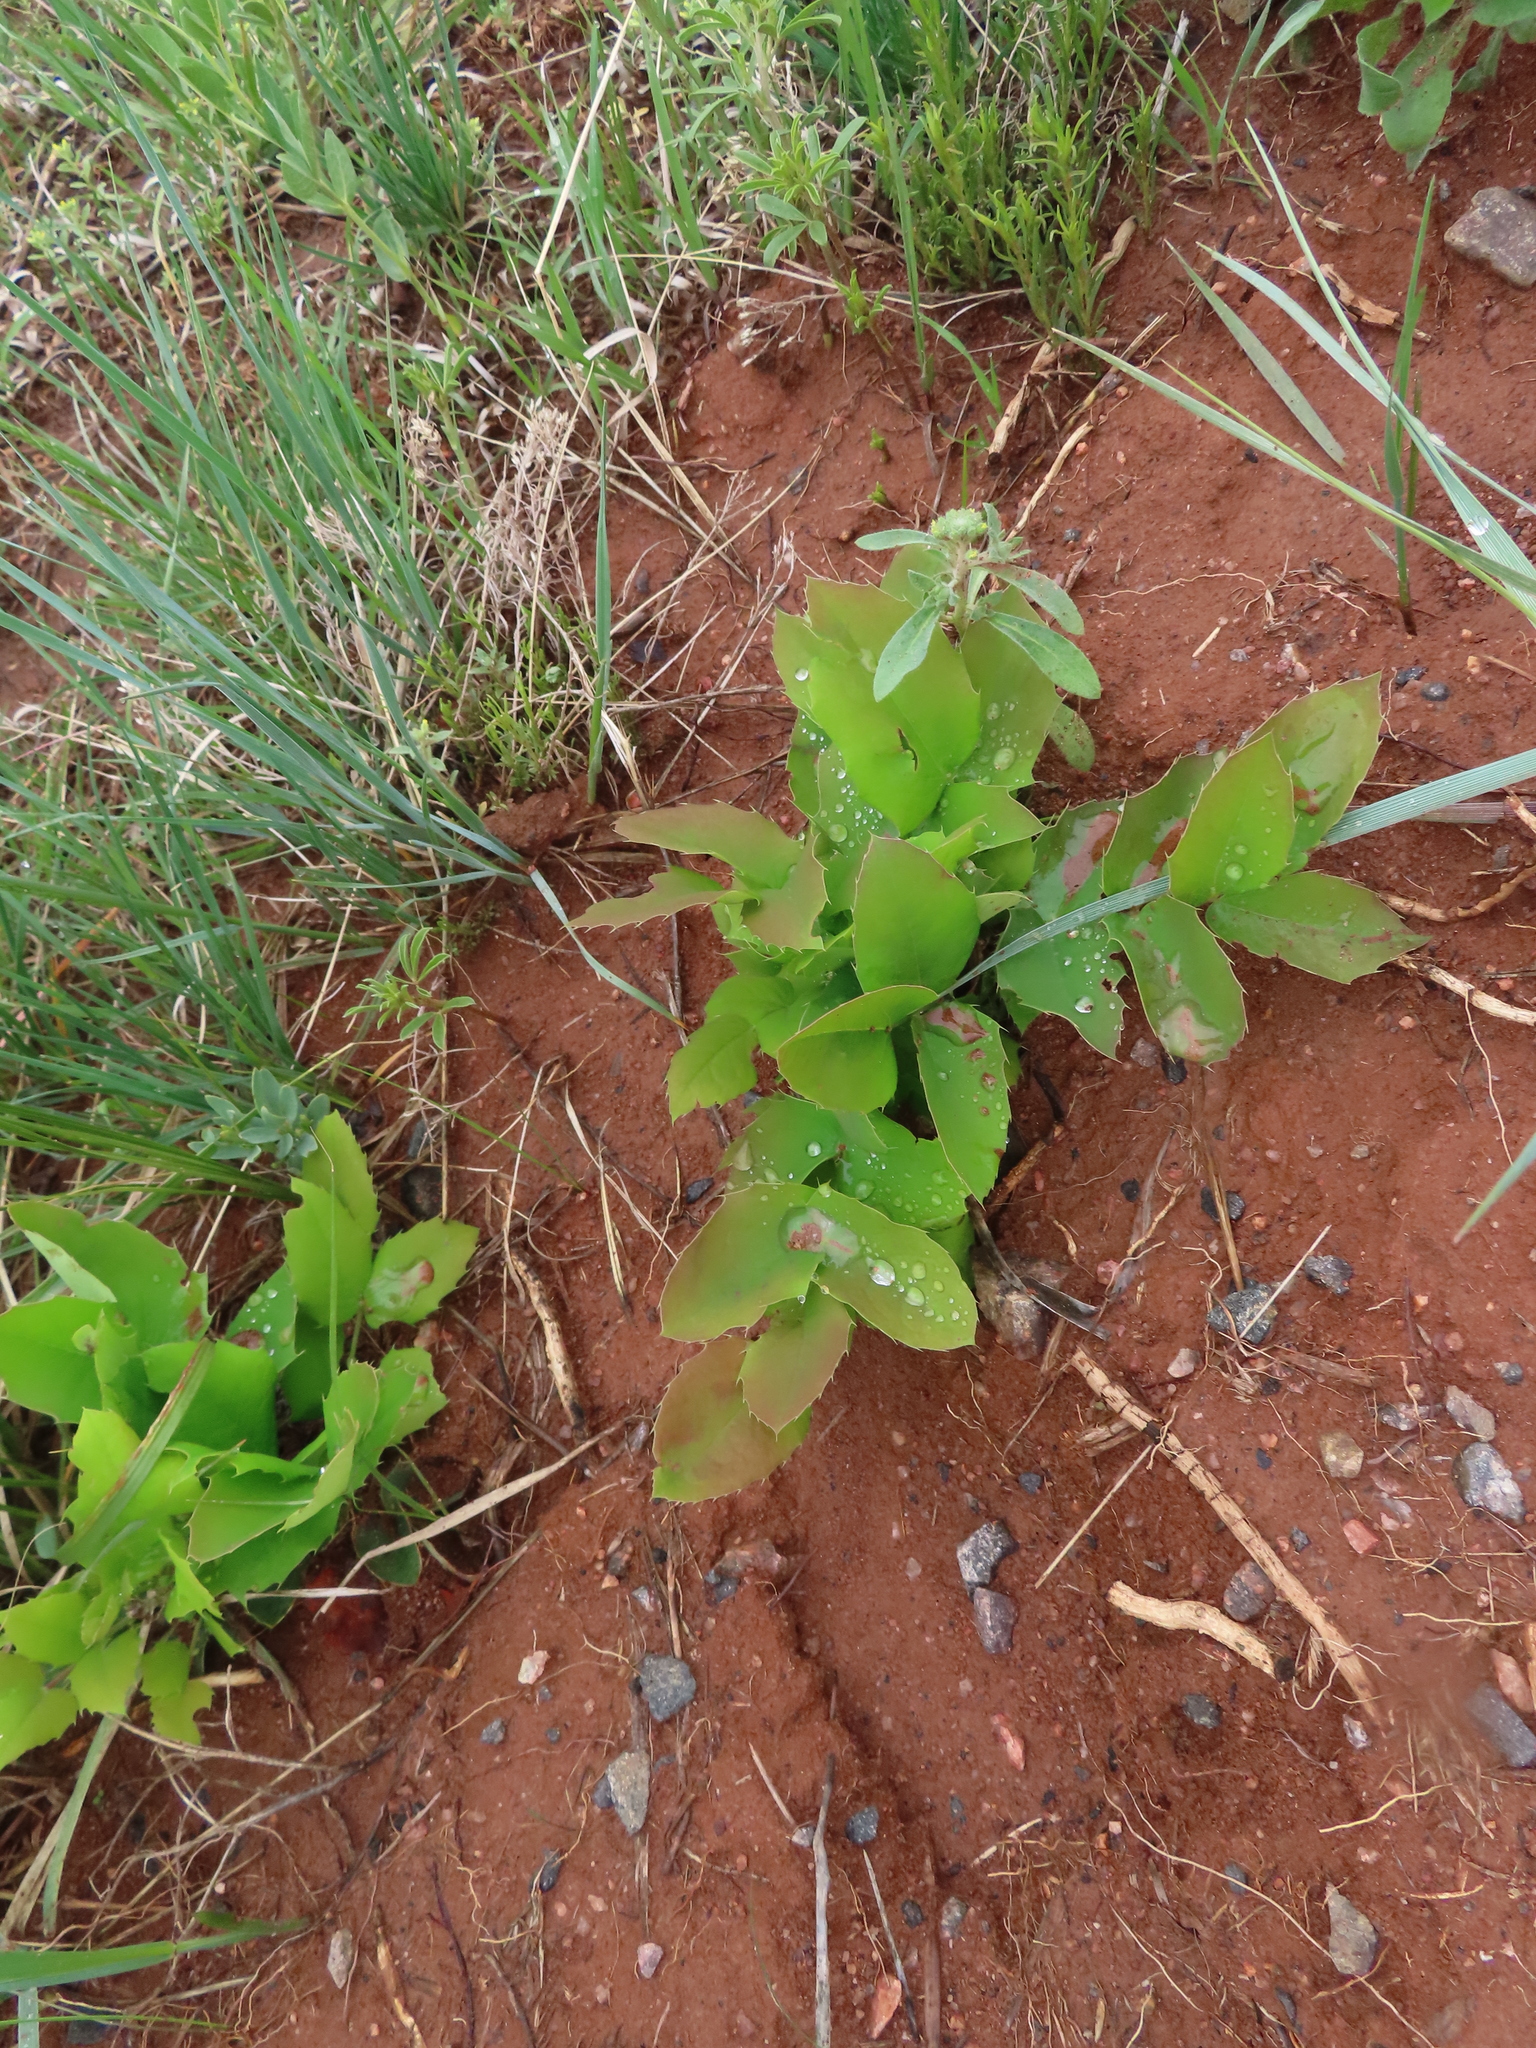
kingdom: Plantae
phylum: Tracheophyta
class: Magnoliopsida
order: Ranunculales
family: Berberidaceae
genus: Mahonia
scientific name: Mahonia repens
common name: Creeping oregon-grape
